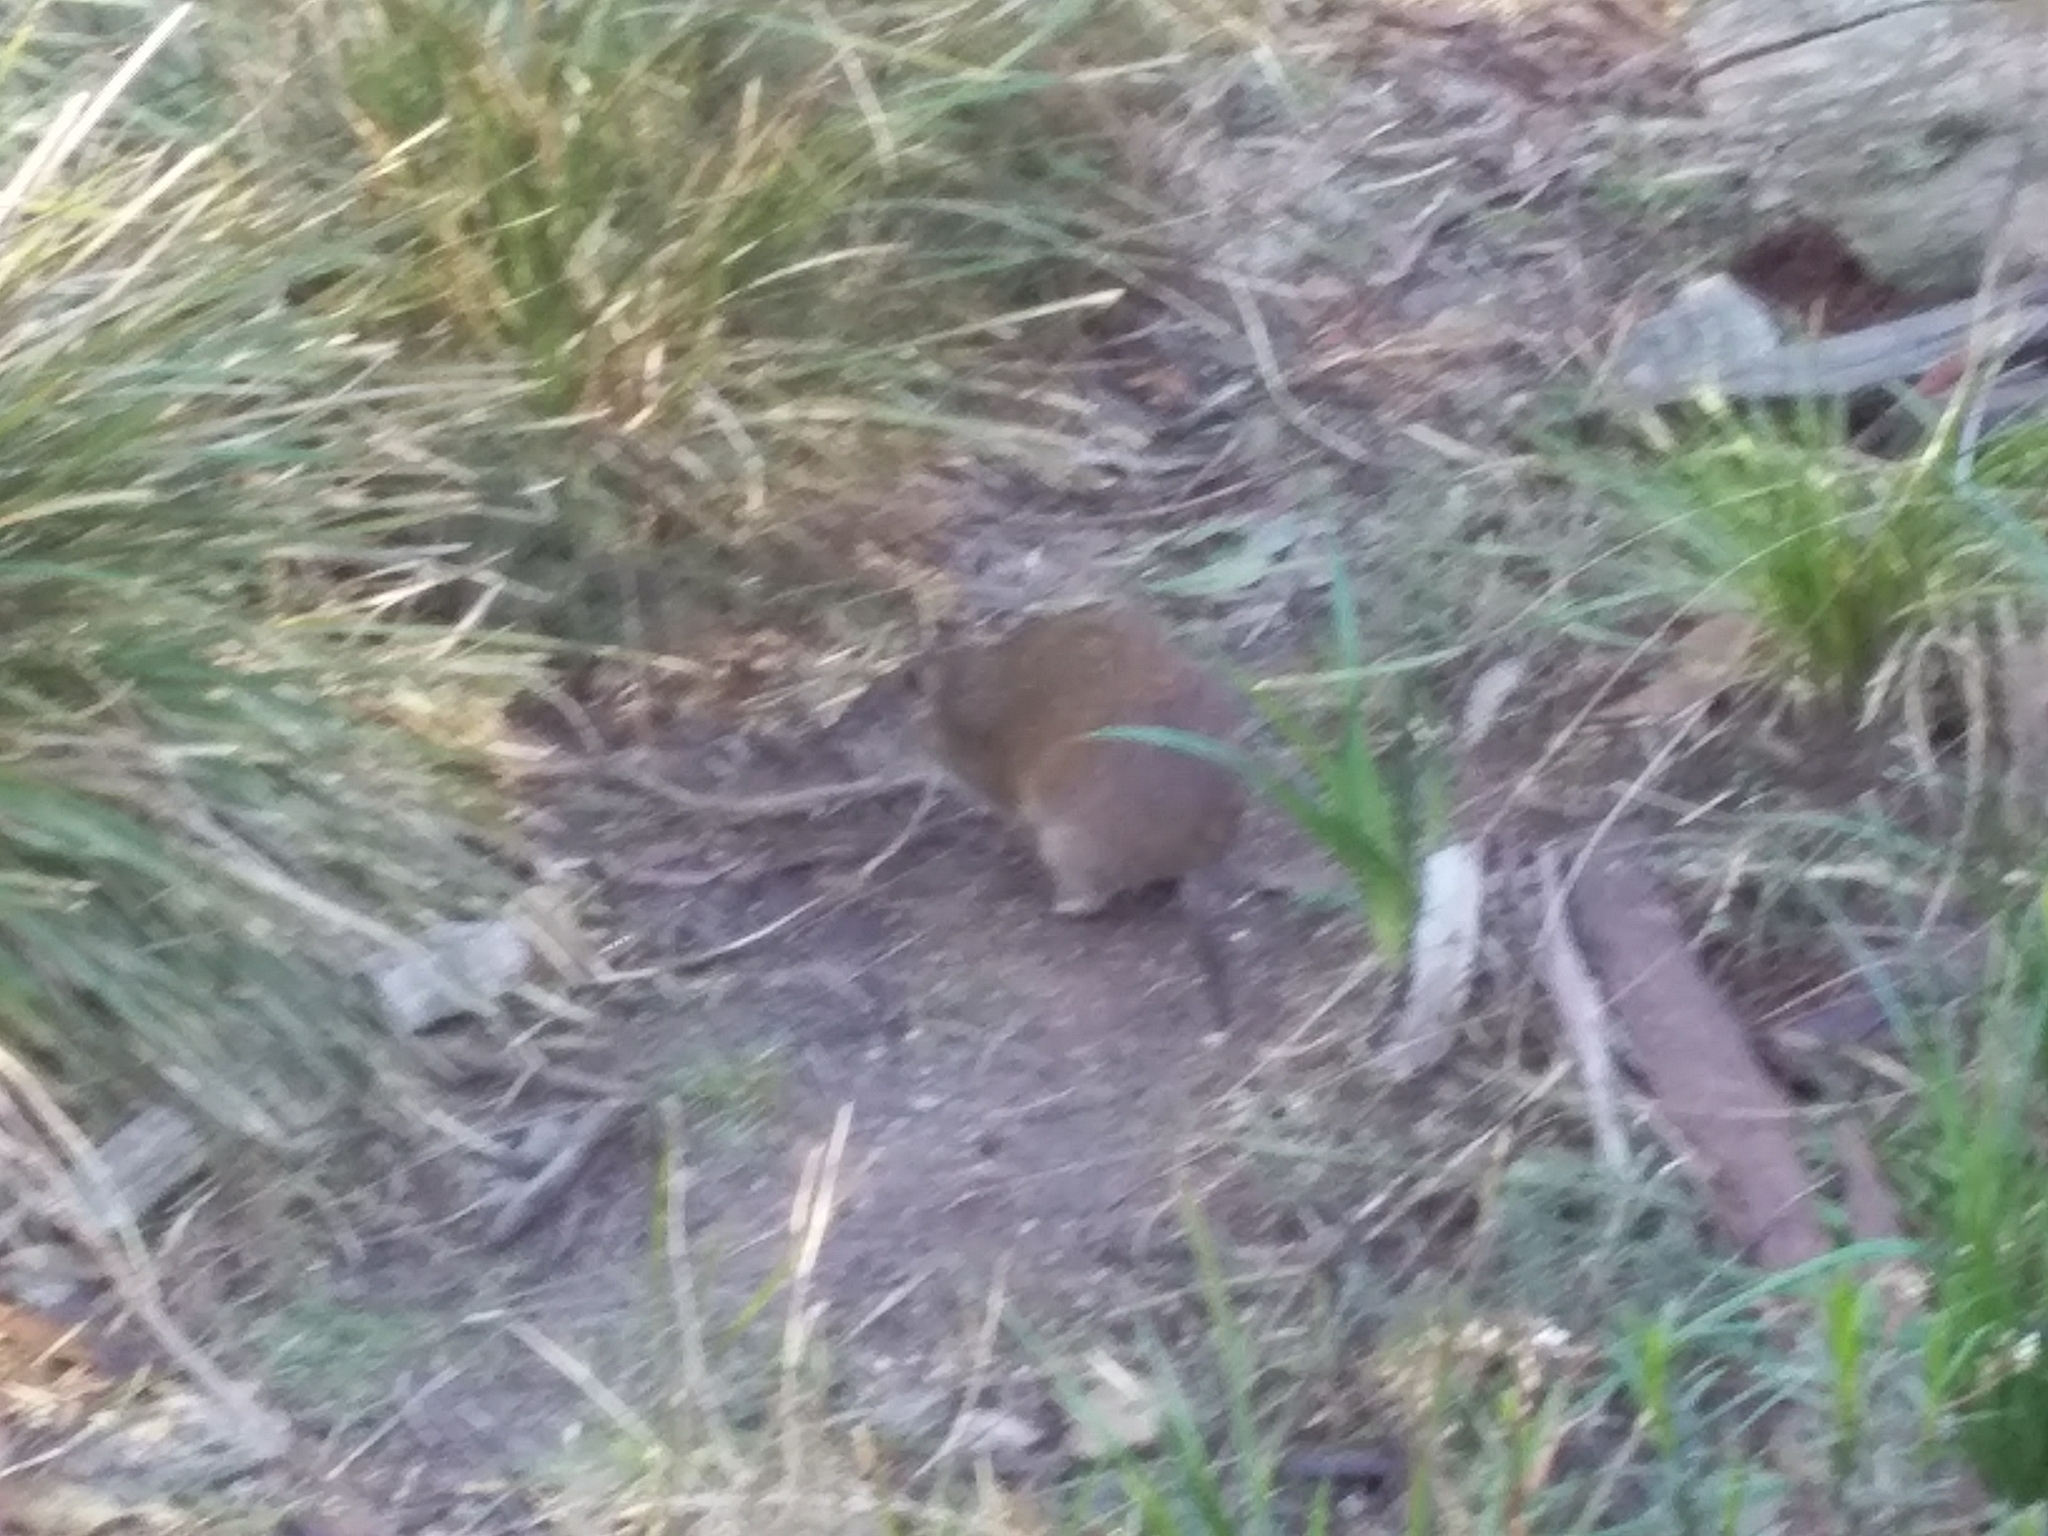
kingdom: Animalia
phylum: Chordata
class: Mammalia
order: Peramelemorphia
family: Peramelidae
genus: Isoodon
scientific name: Isoodon obesulus
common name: Southern brown bandicoot
